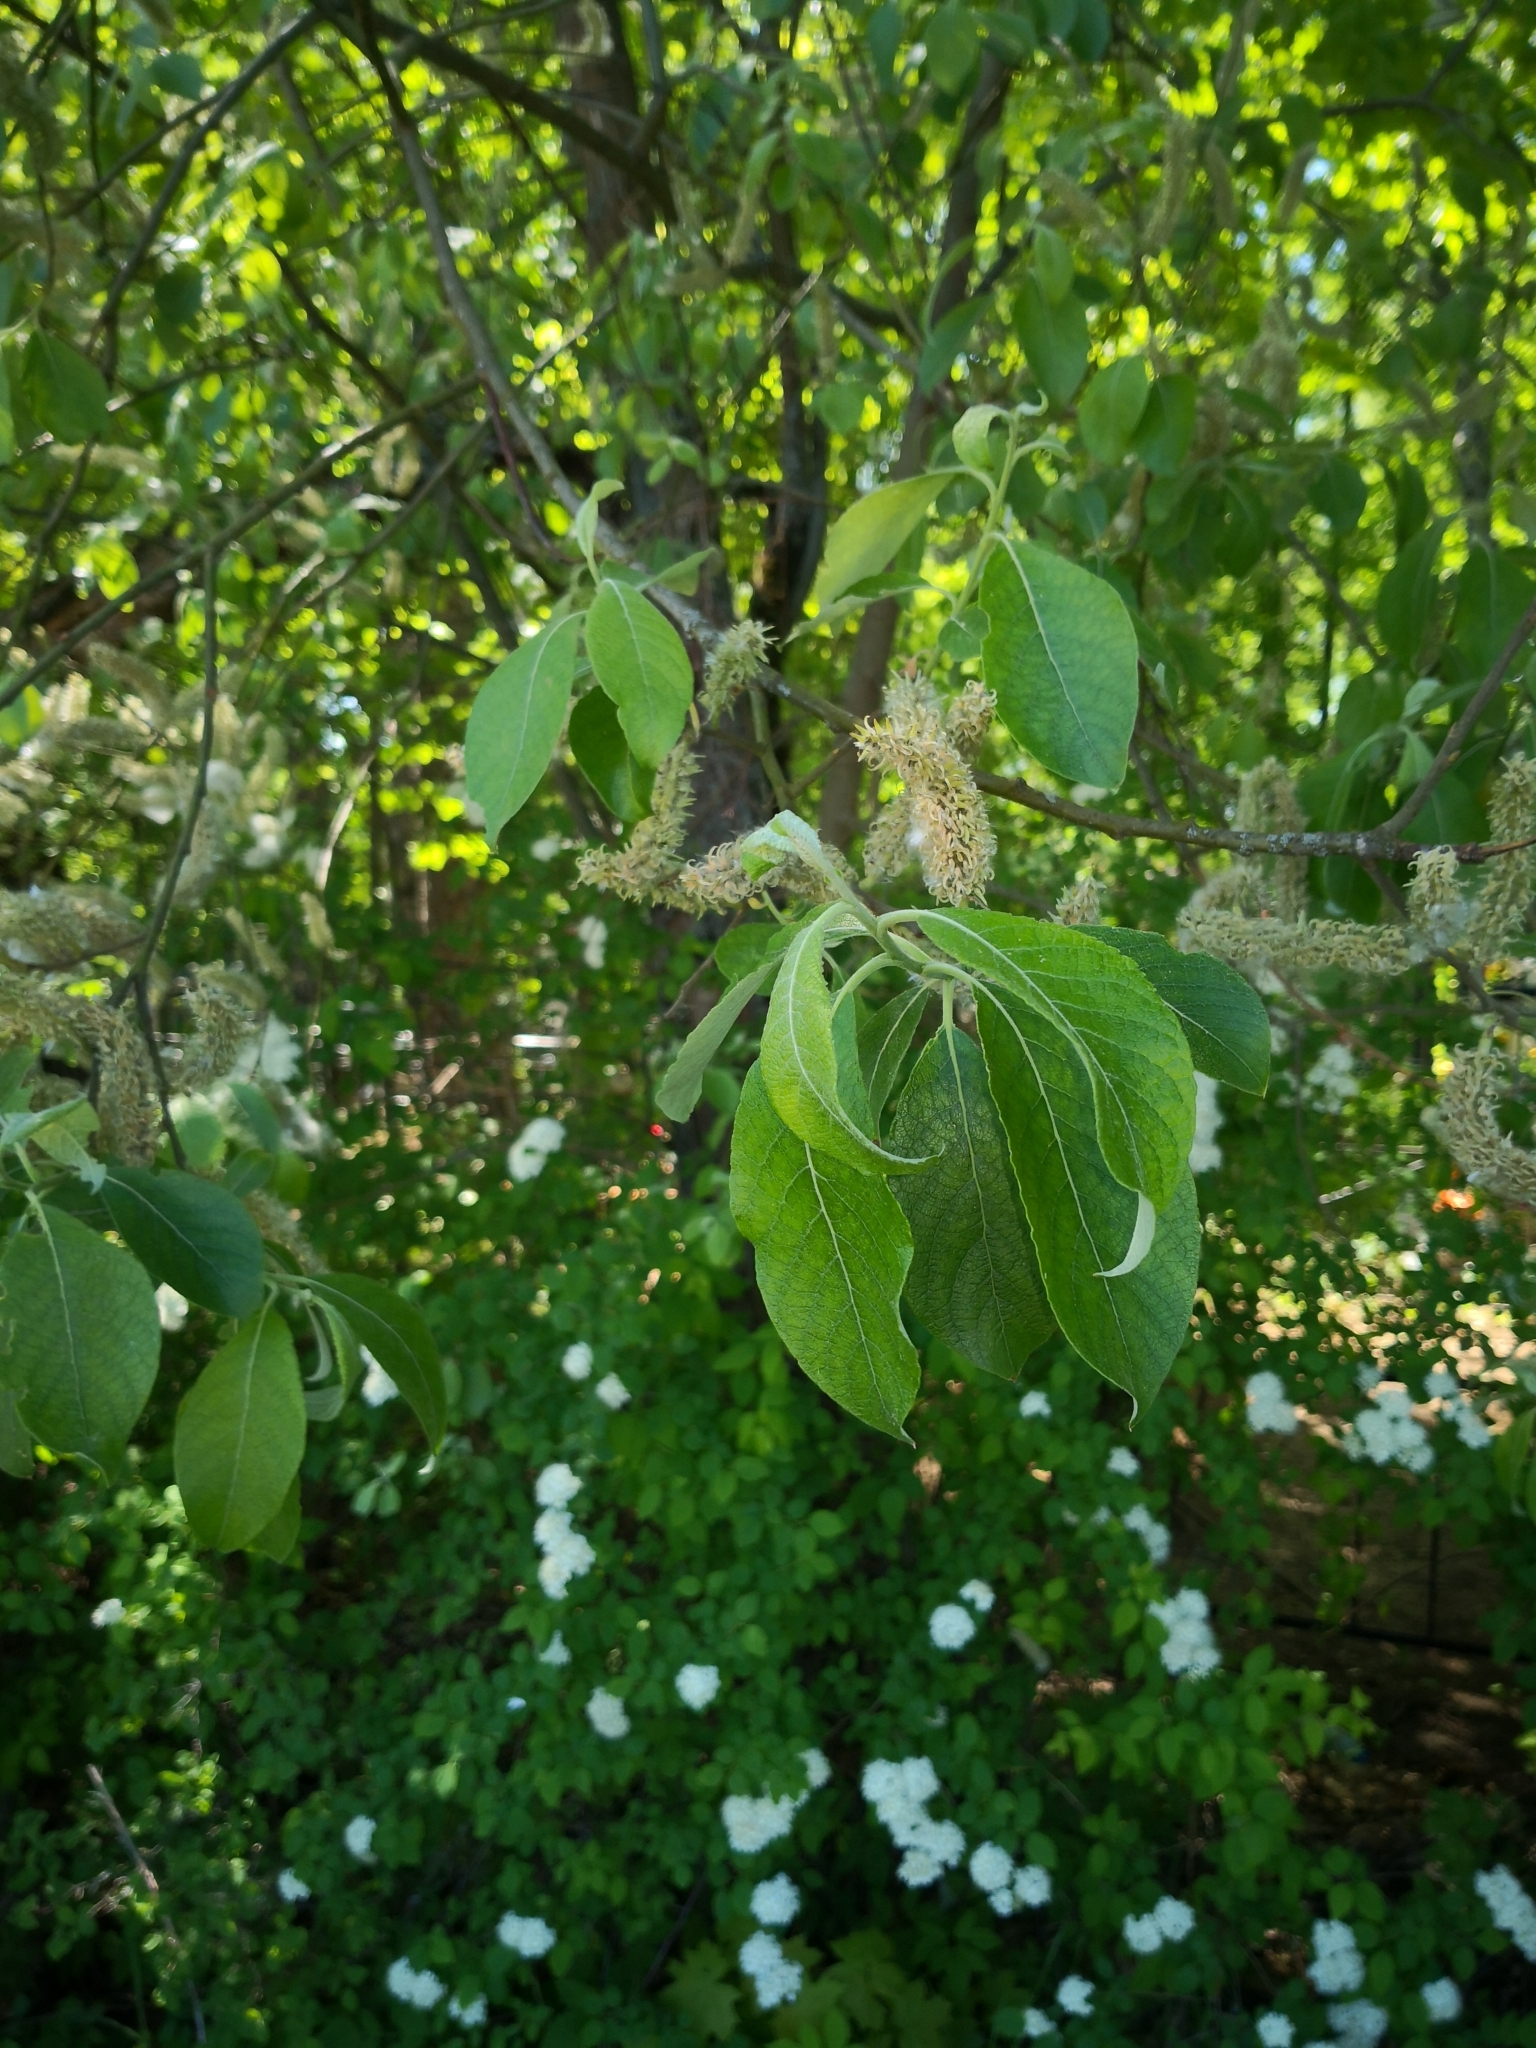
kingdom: Plantae
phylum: Tracheophyta
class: Magnoliopsida
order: Malpighiales
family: Salicaceae
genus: Salix
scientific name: Salix caprea
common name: Goat willow
